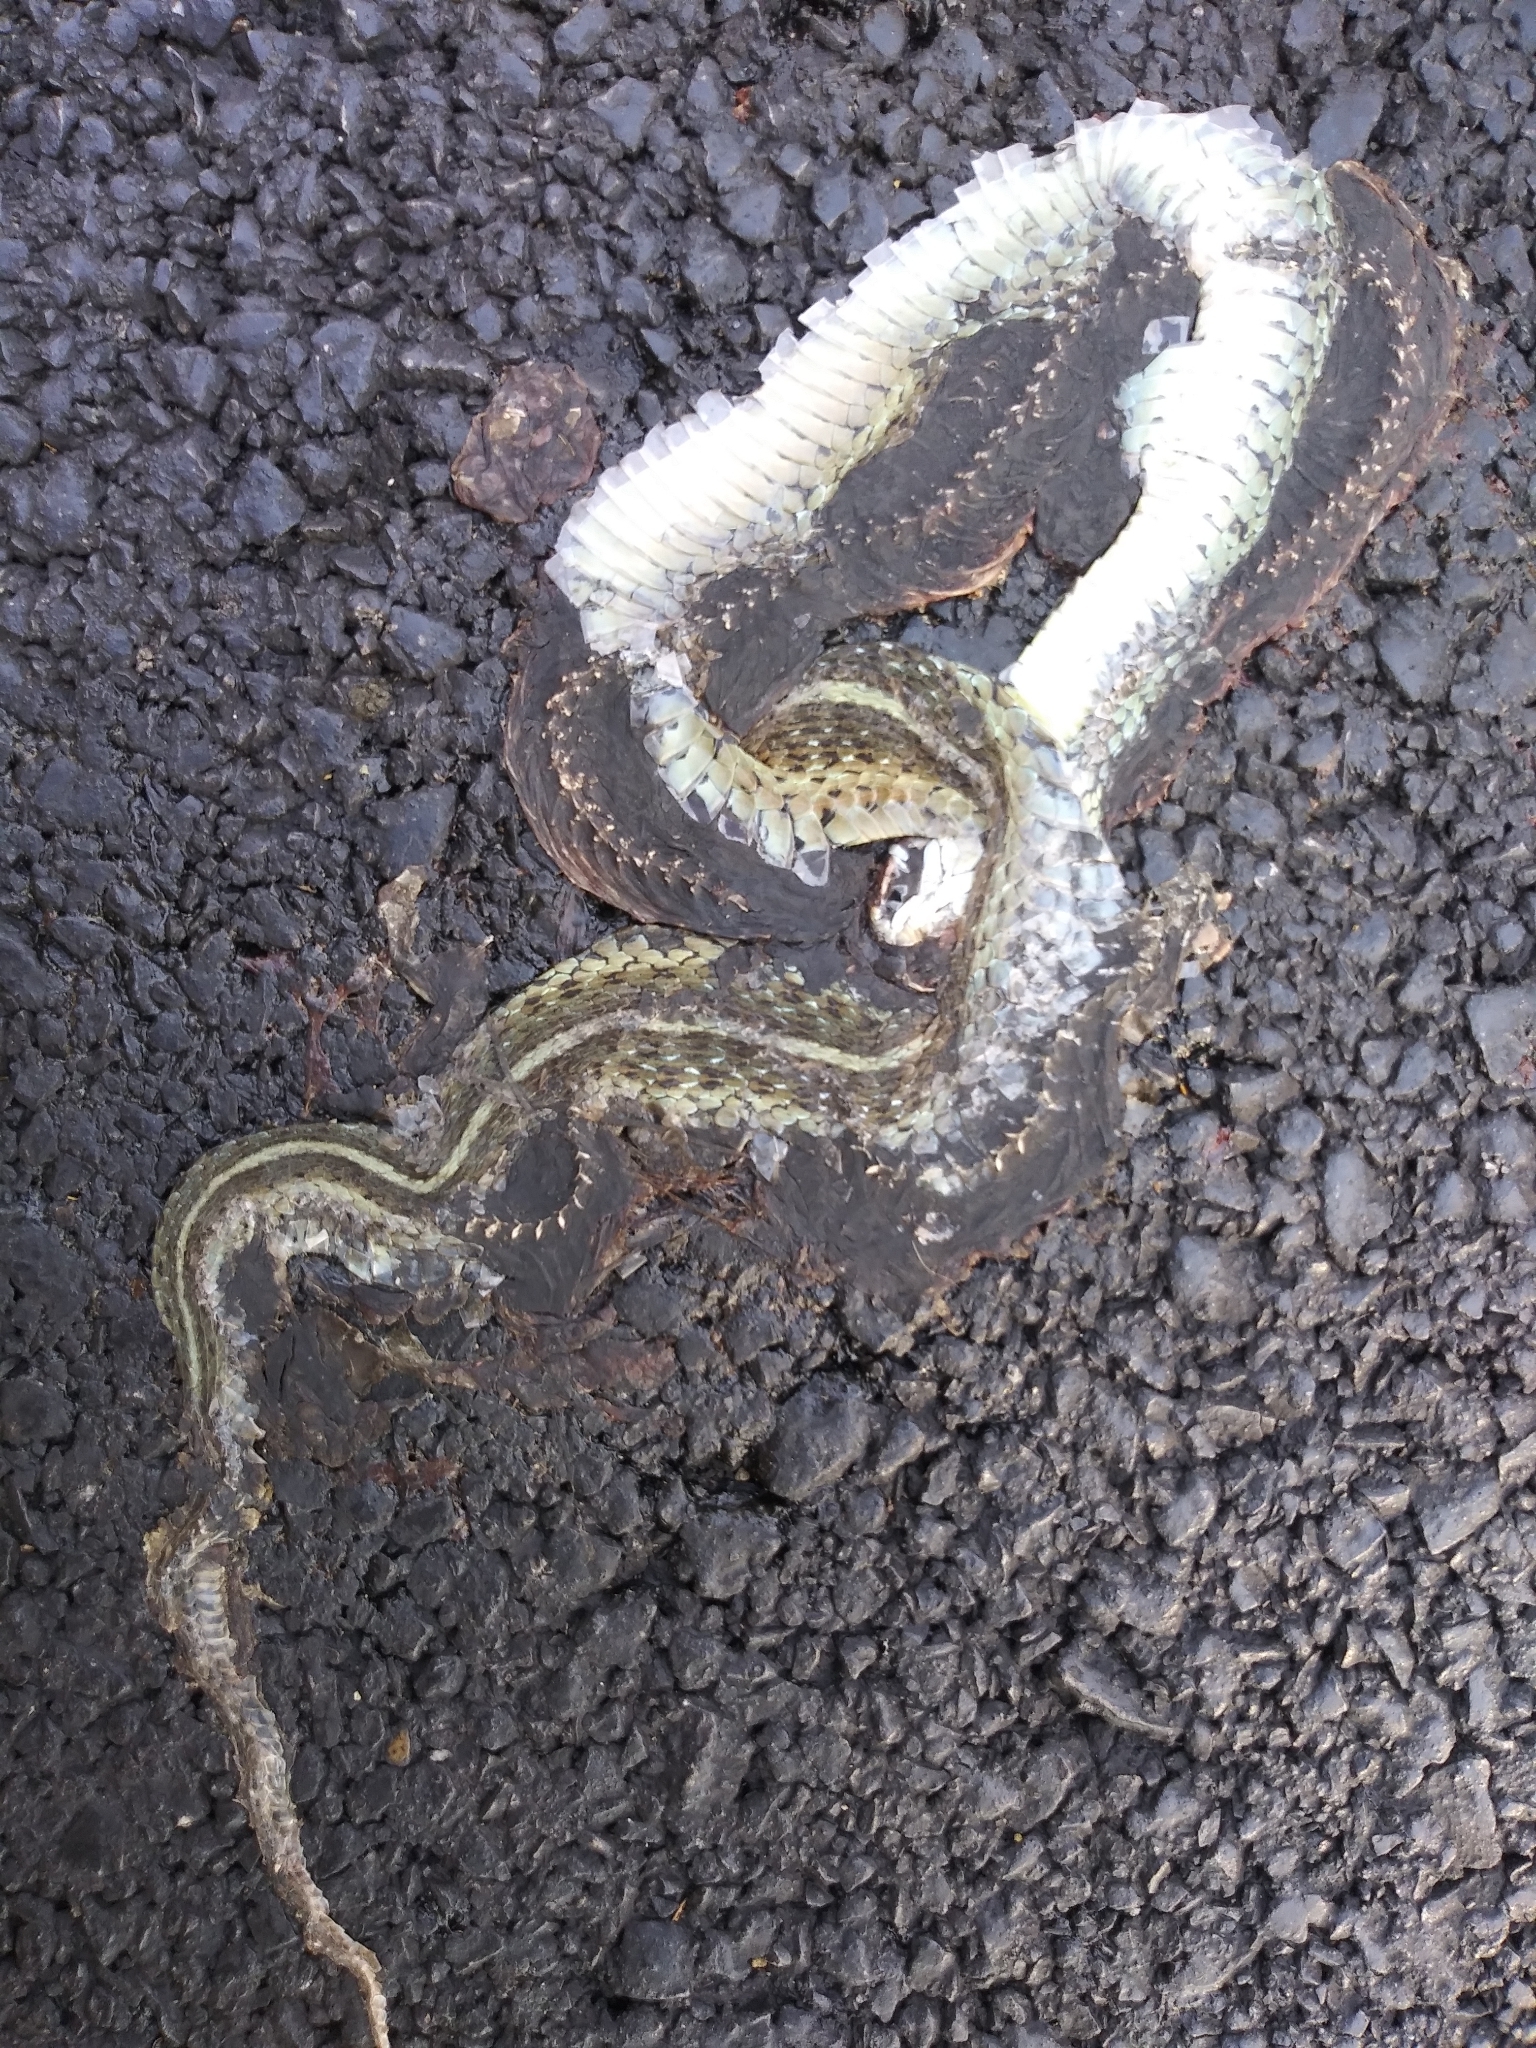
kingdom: Animalia
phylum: Chordata
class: Squamata
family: Colubridae
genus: Thamnophis
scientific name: Thamnophis sirtalis
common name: Common garter snake
